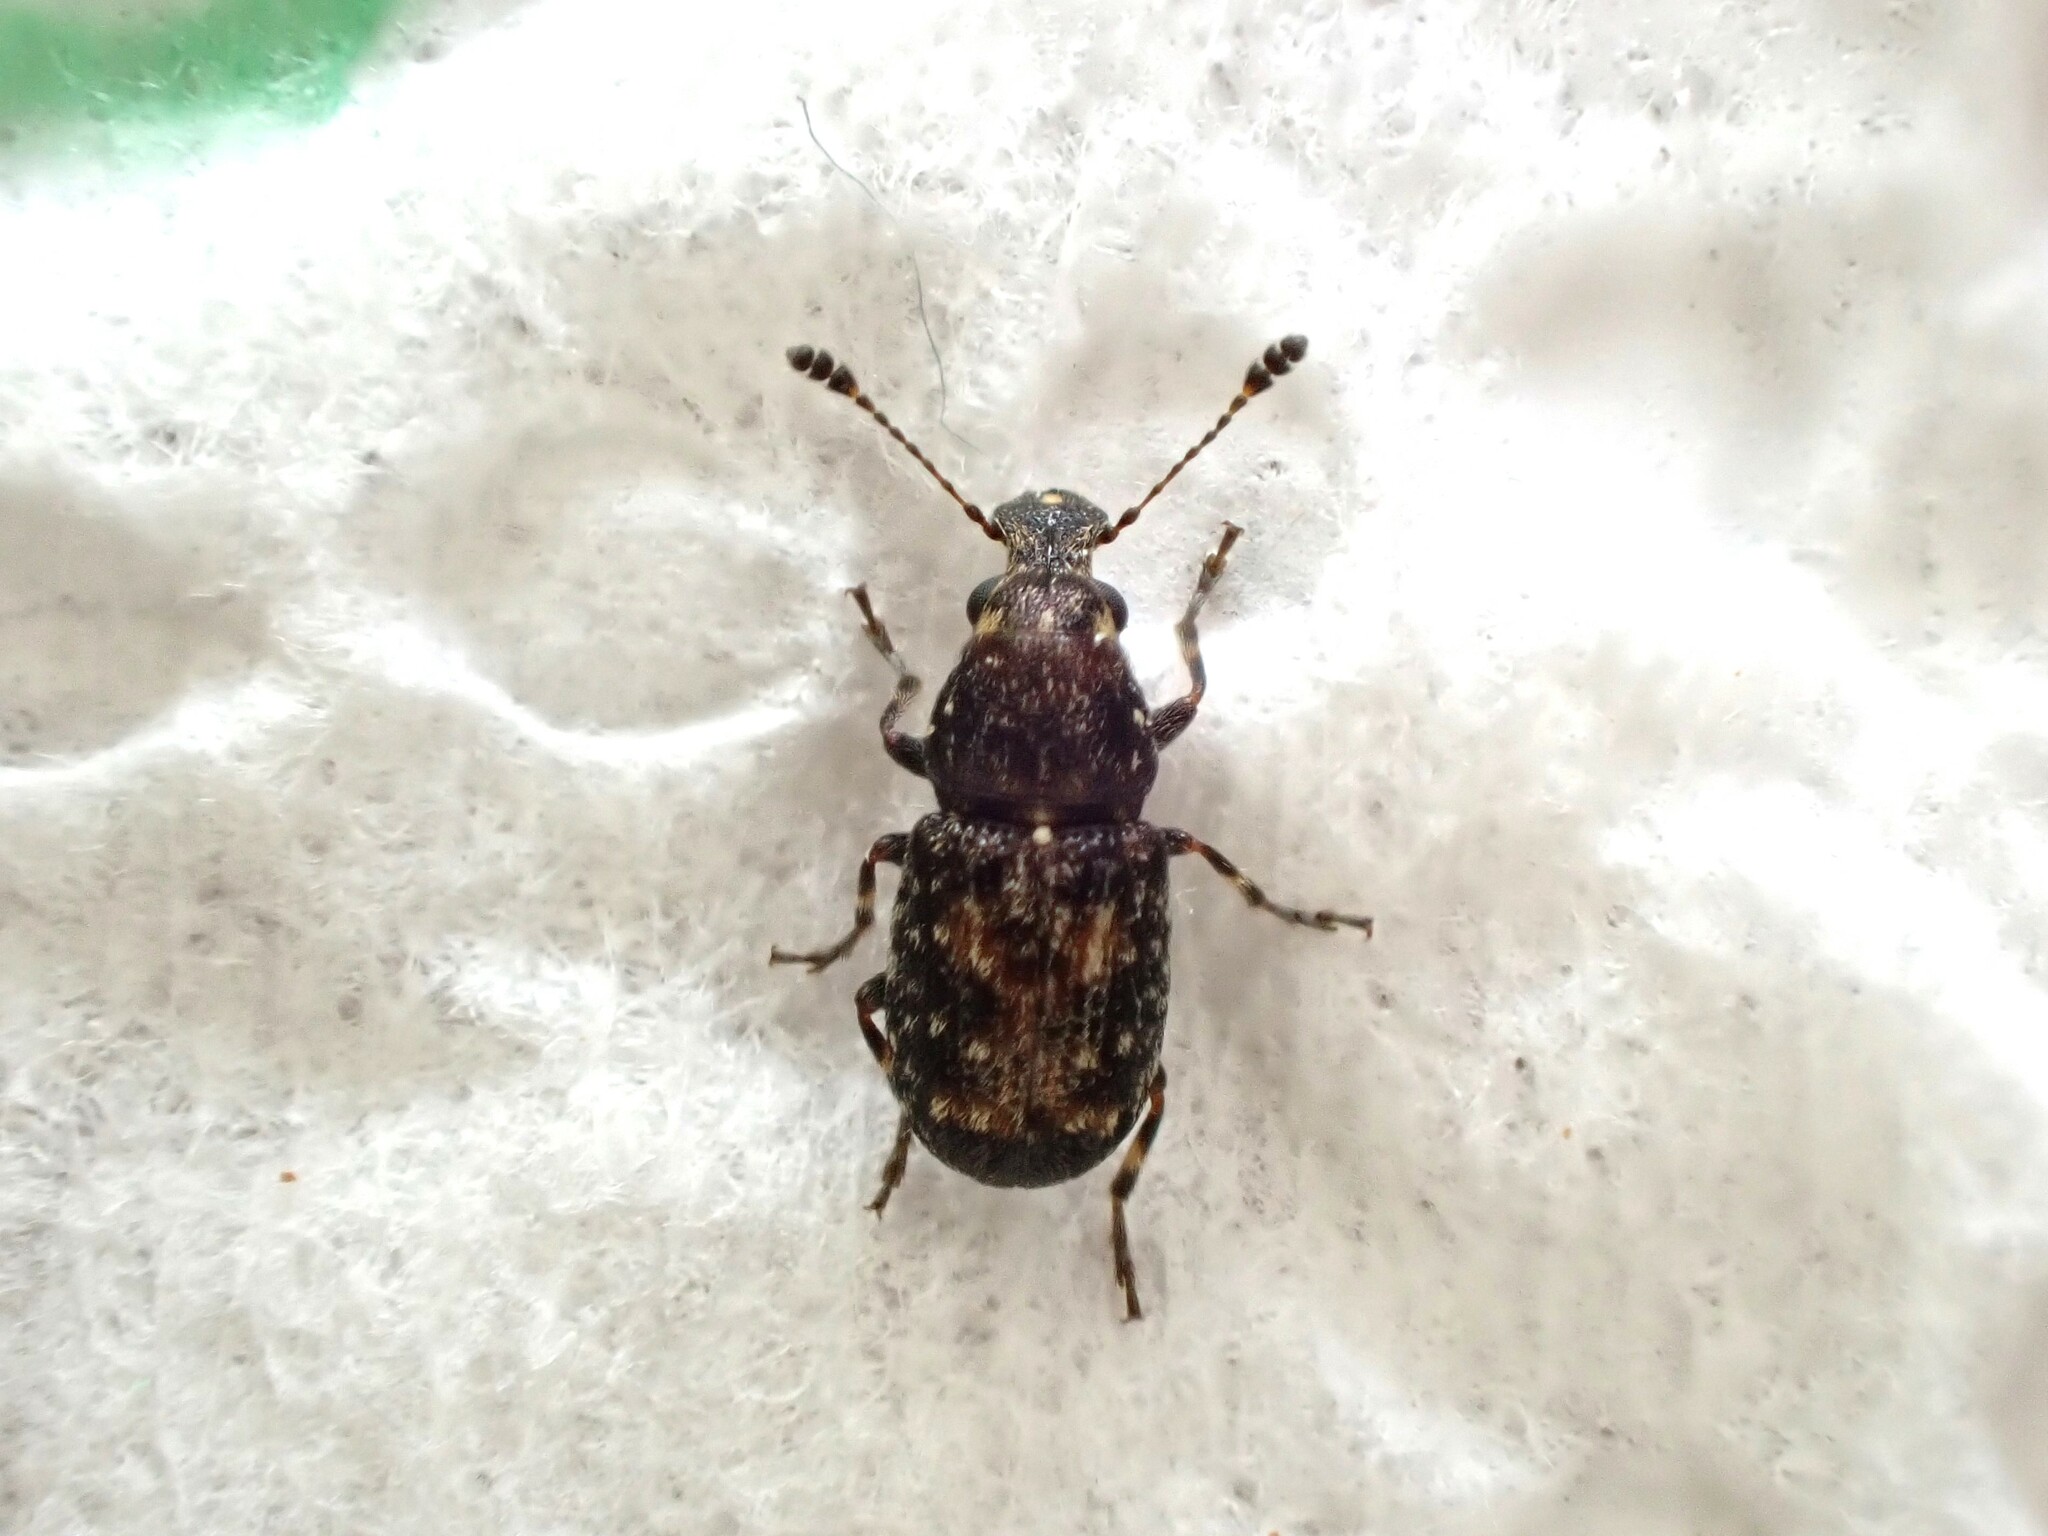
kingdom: Animalia
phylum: Arthropoda
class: Insecta
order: Coleoptera
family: Anthribidae
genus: Sharpius
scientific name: Sharpius
